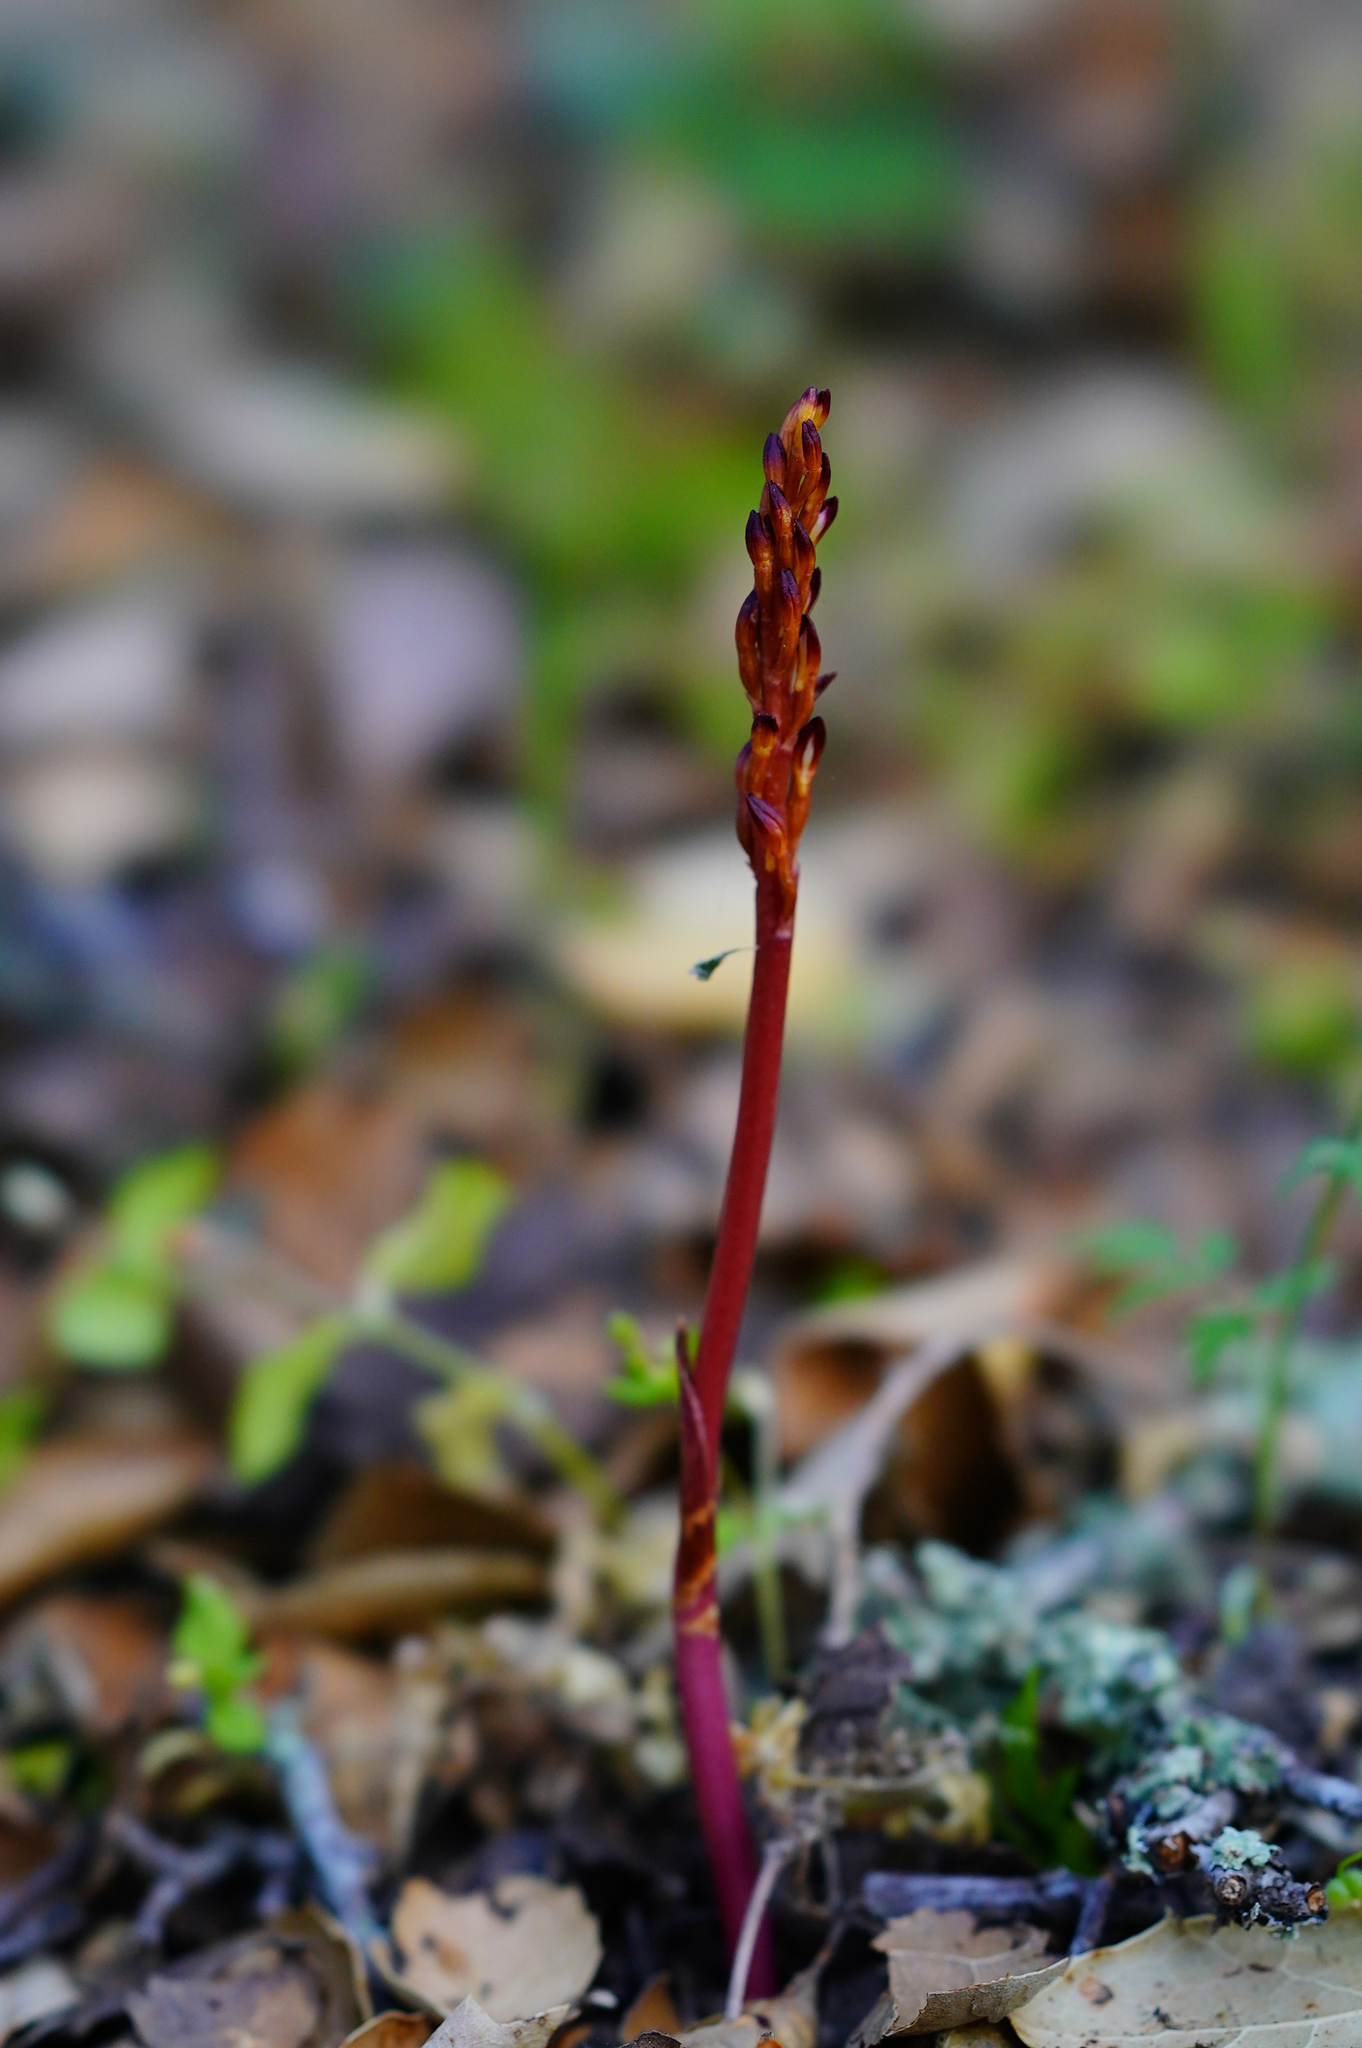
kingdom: Plantae
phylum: Tracheophyta
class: Liliopsida
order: Asparagales
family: Orchidaceae
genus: Corallorhiza
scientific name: Corallorhiza maculata
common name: Spotted coralroot
